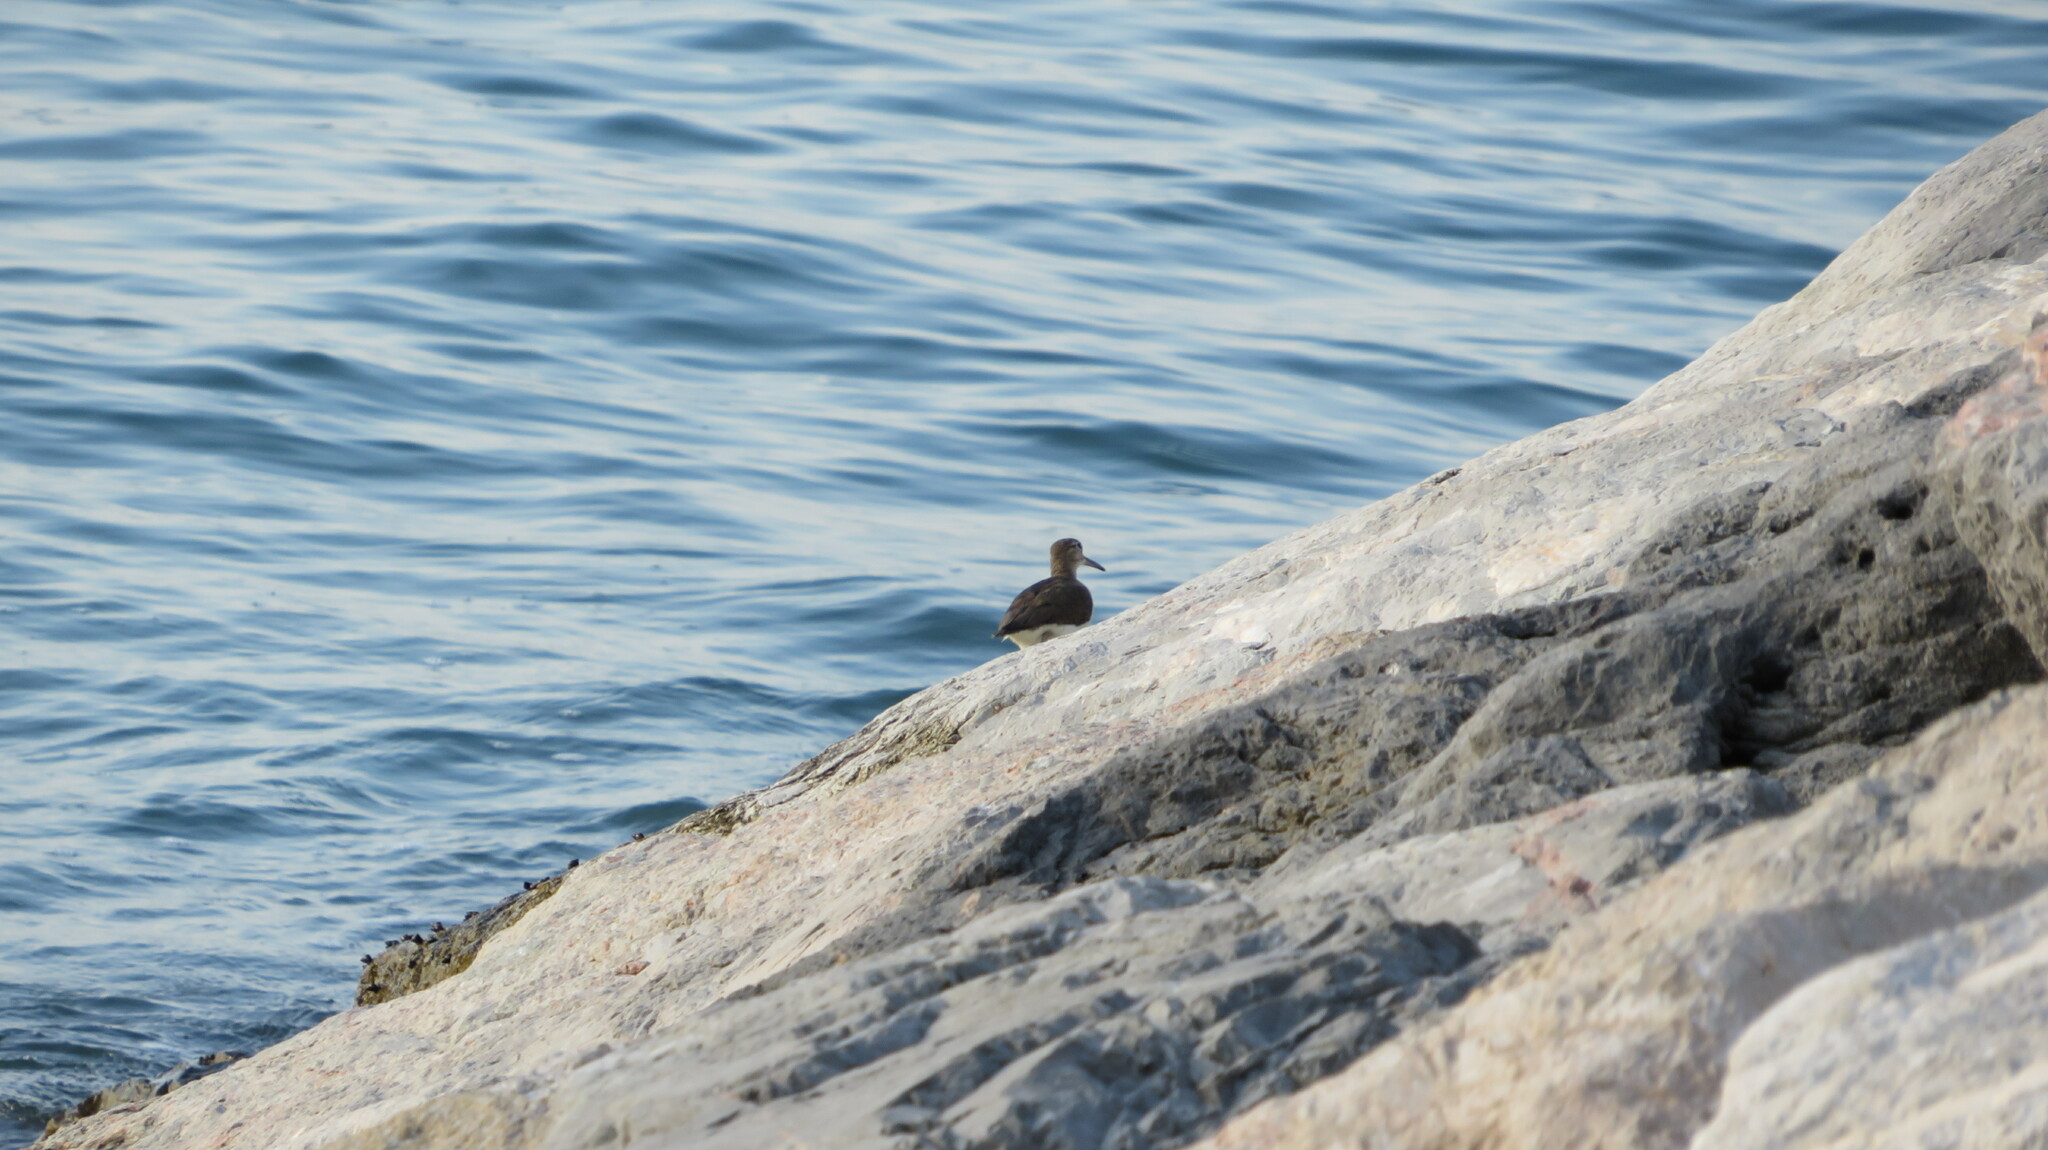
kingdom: Animalia
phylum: Chordata
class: Aves
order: Charadriiformes
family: Scolopacidae
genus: Actitis
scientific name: Actitis hypoleucos
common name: Common sandpiper
